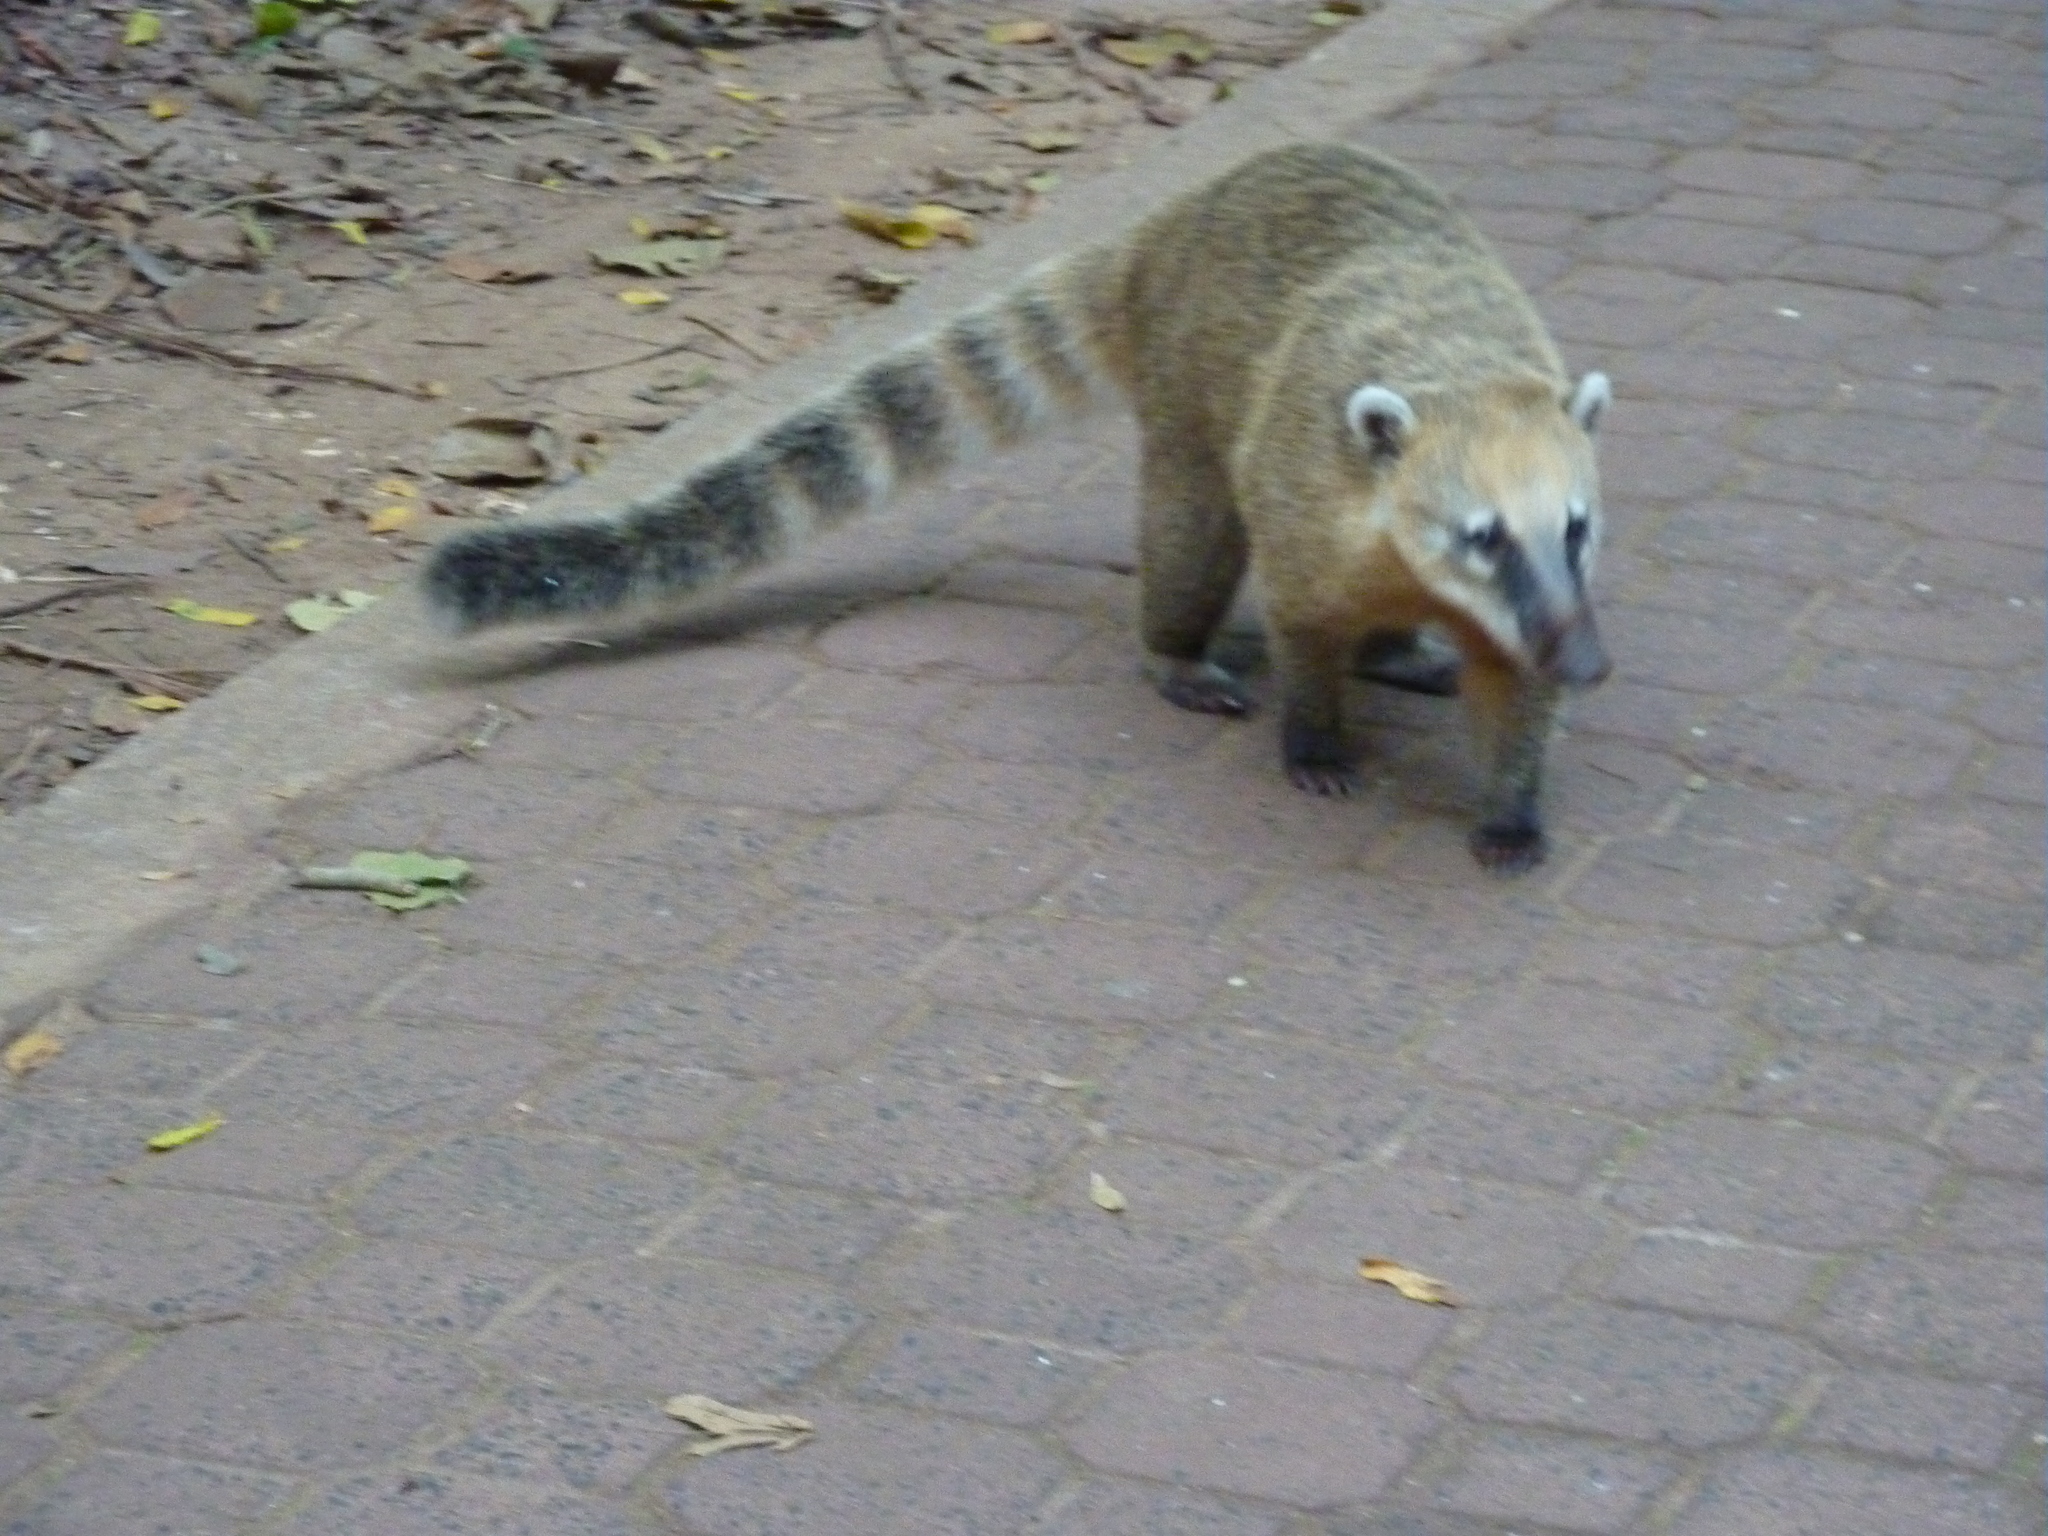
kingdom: Animalia
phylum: Chordata
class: Mammalia
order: Carnivora
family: Procyonidae
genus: Nasua
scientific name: Nasua nasua
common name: South american coati
